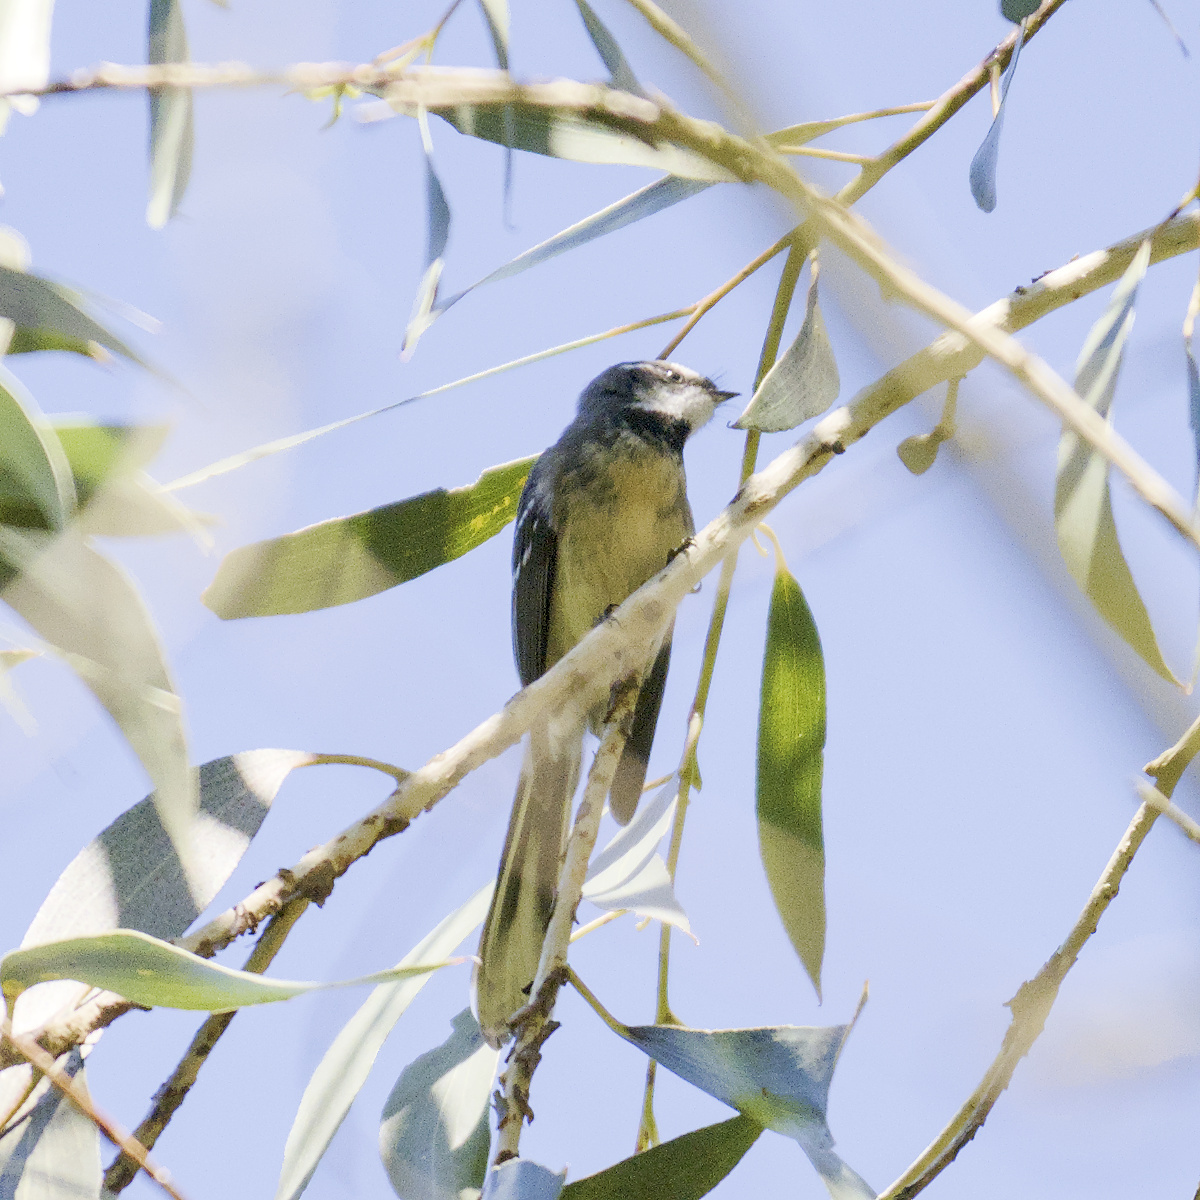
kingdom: Animalia
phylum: Chordata
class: Aves
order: Passeriformes
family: Rhipiduridae
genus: Rhipidura
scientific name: Rhipidura albiscapa
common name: Grey fantail
